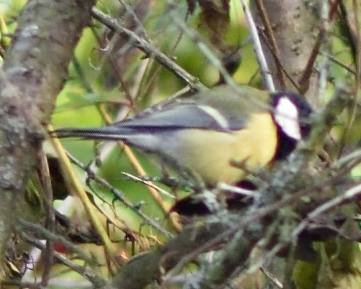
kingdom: Animalia
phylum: Chordata
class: Aves
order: Passeriformes
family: Paridae
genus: Parus
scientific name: Parus major
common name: Great tit
